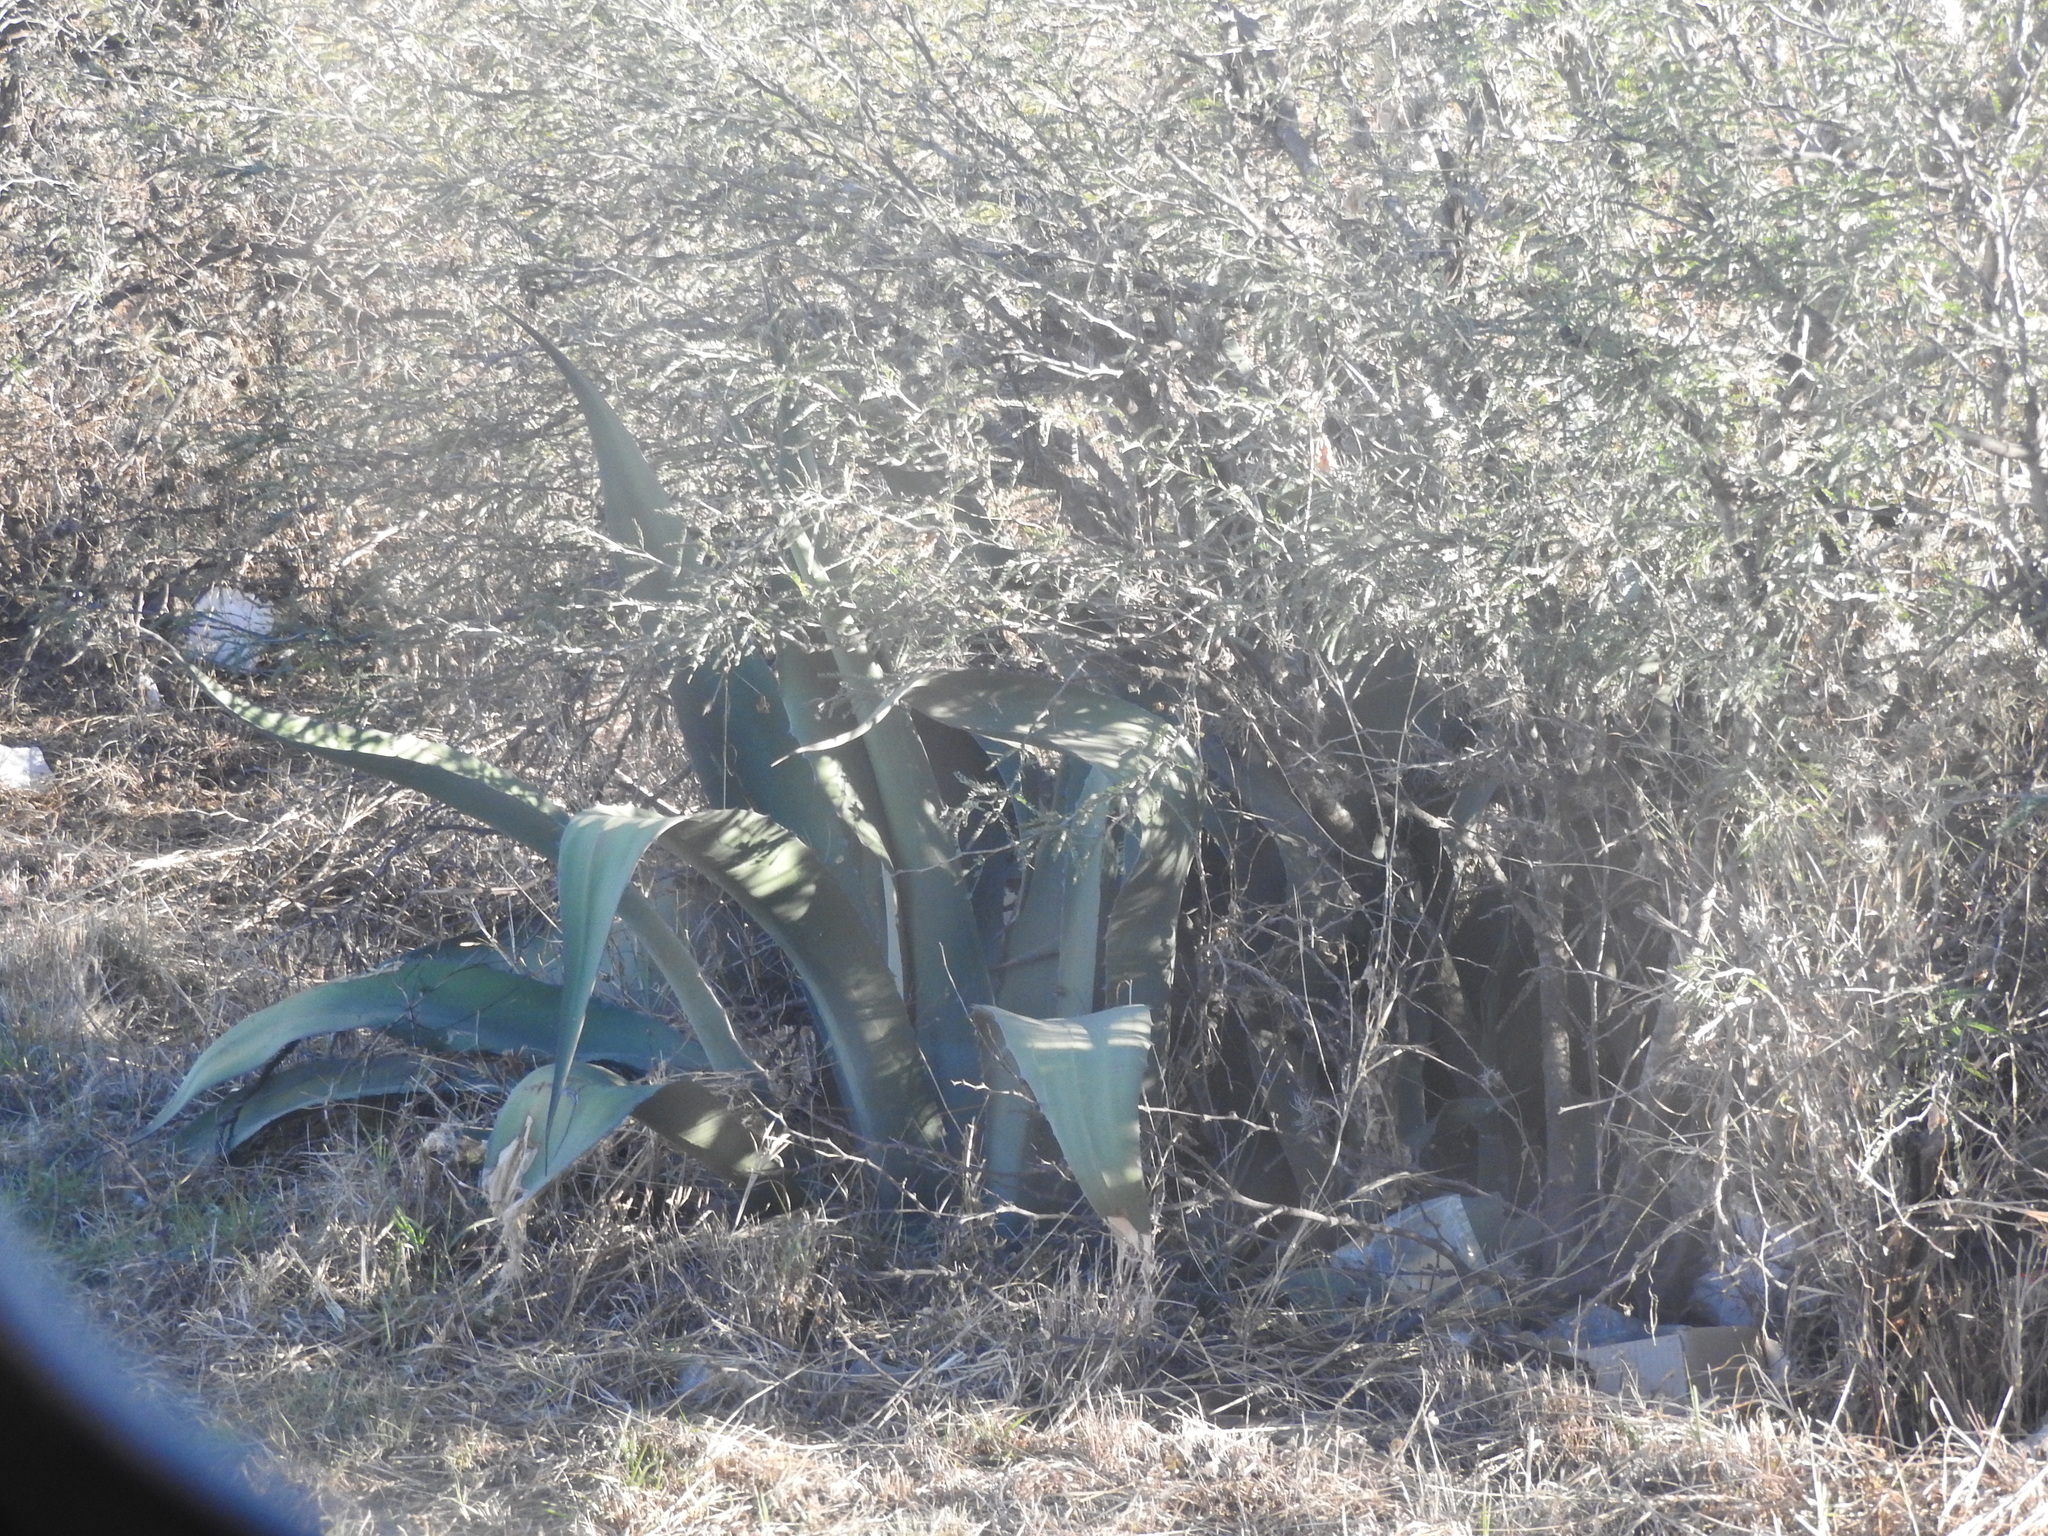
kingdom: Plantae
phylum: Tracheophyta
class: Liliopsida
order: Asparagales
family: Asparagaceae
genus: Agave
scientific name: Agave salmiana
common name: Pulque agave
